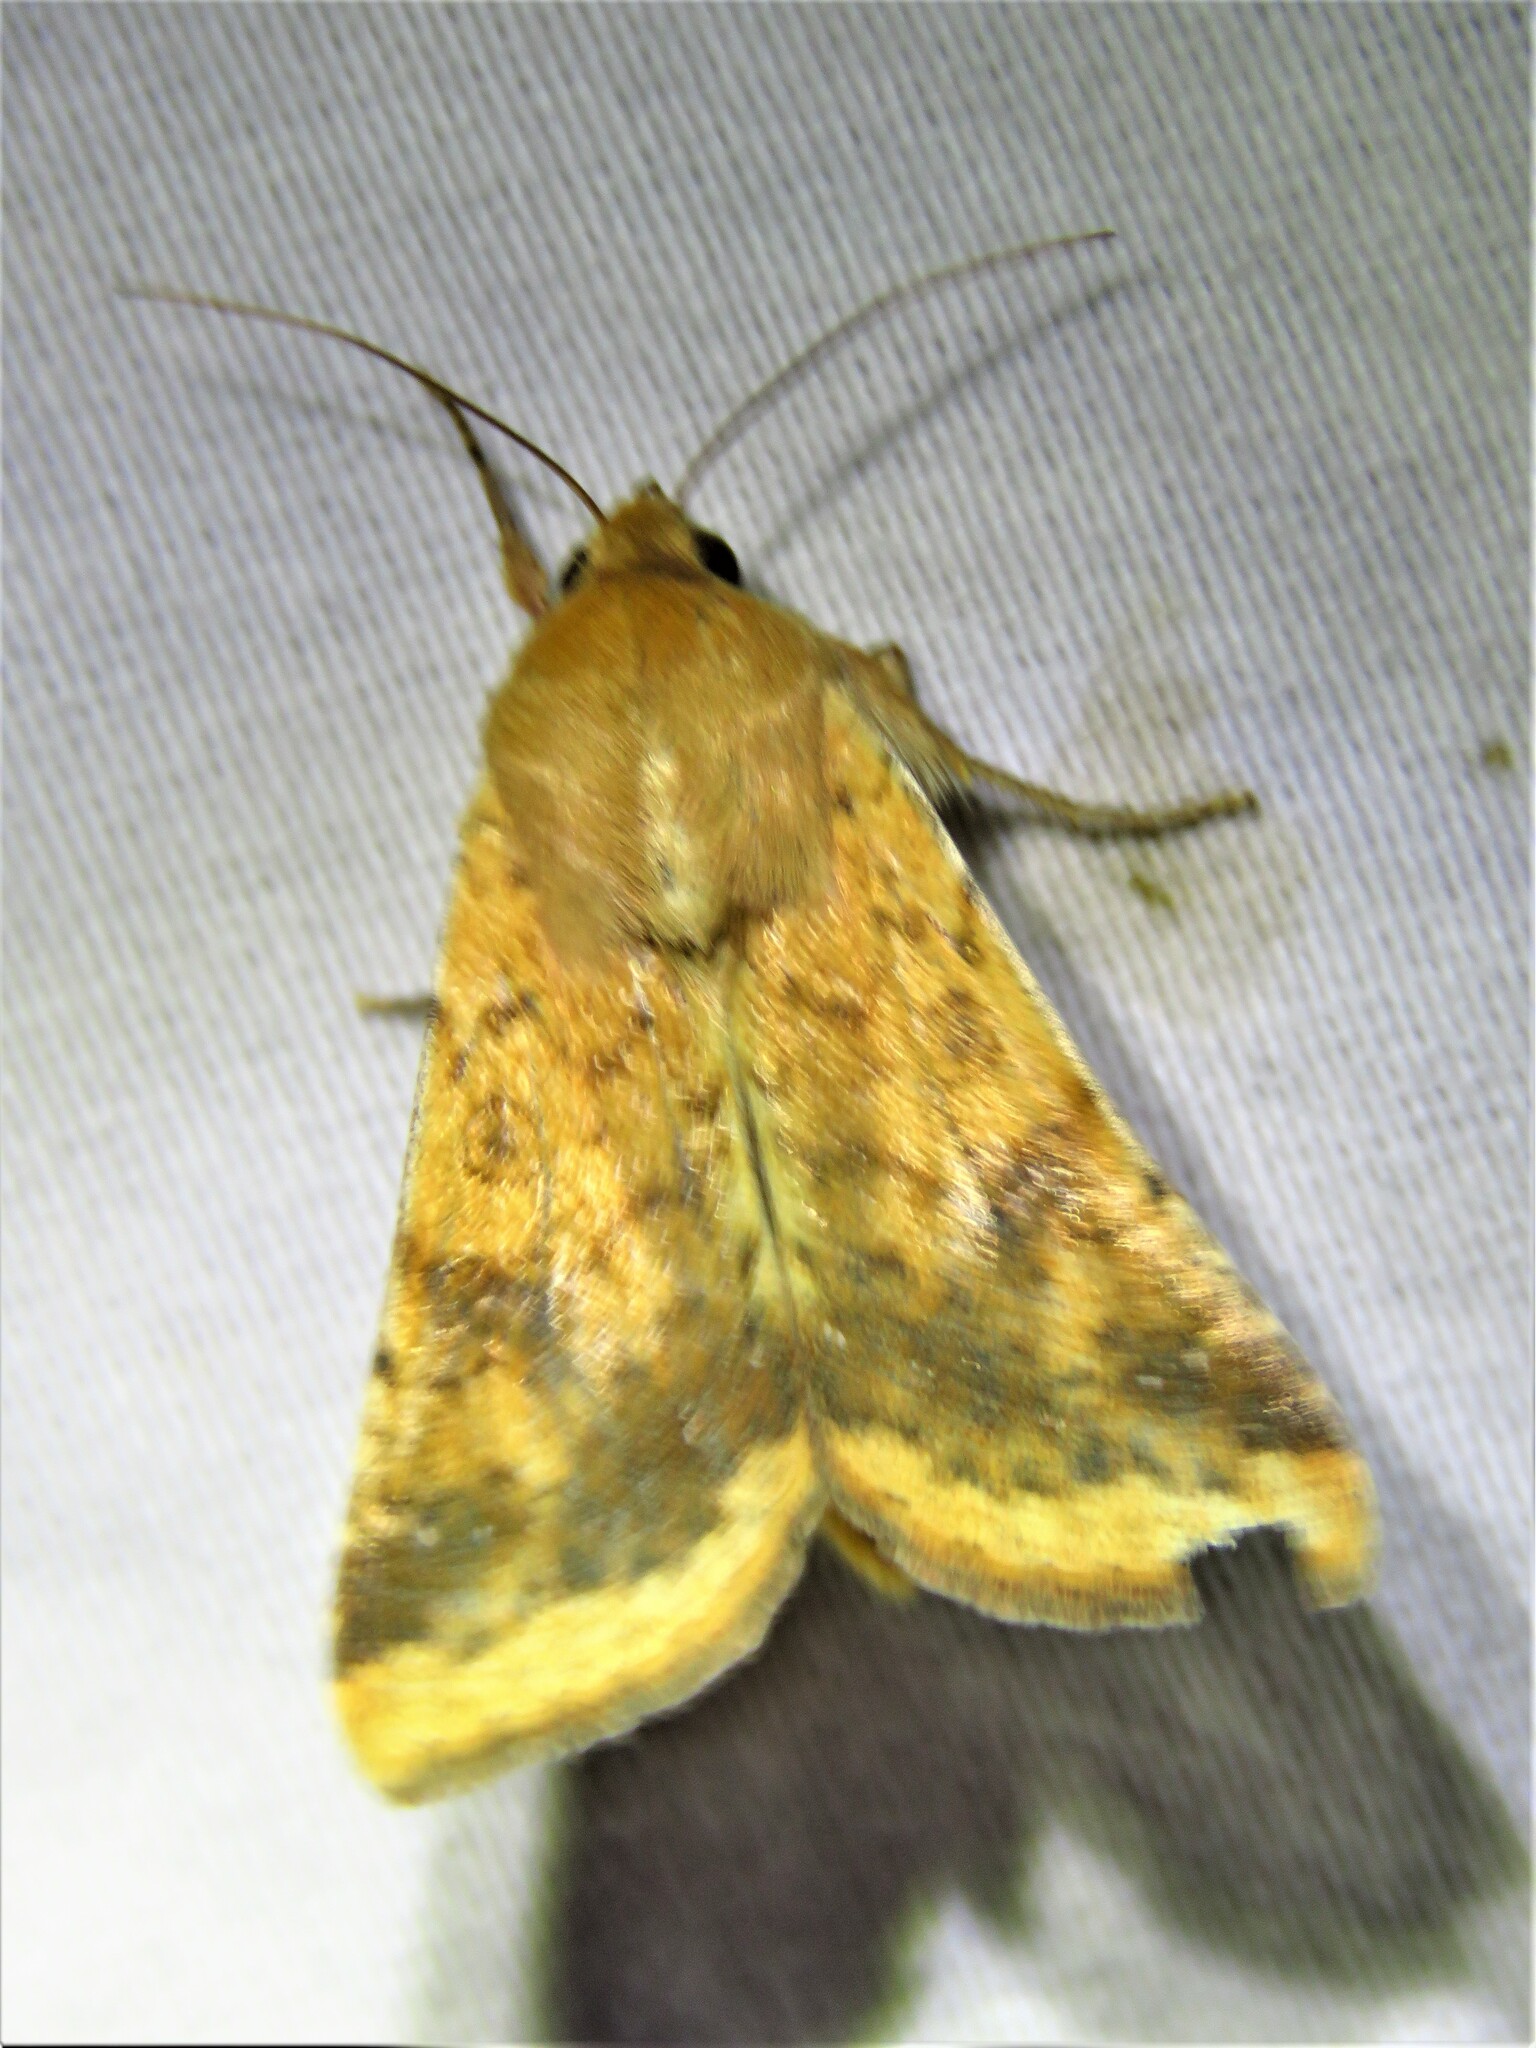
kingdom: Animalia
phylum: Arthropoda
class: Insecta
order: Lepidoptera
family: Noctuidae
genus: Helicoverpa
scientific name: Helicoverpa zea
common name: Bollworm
